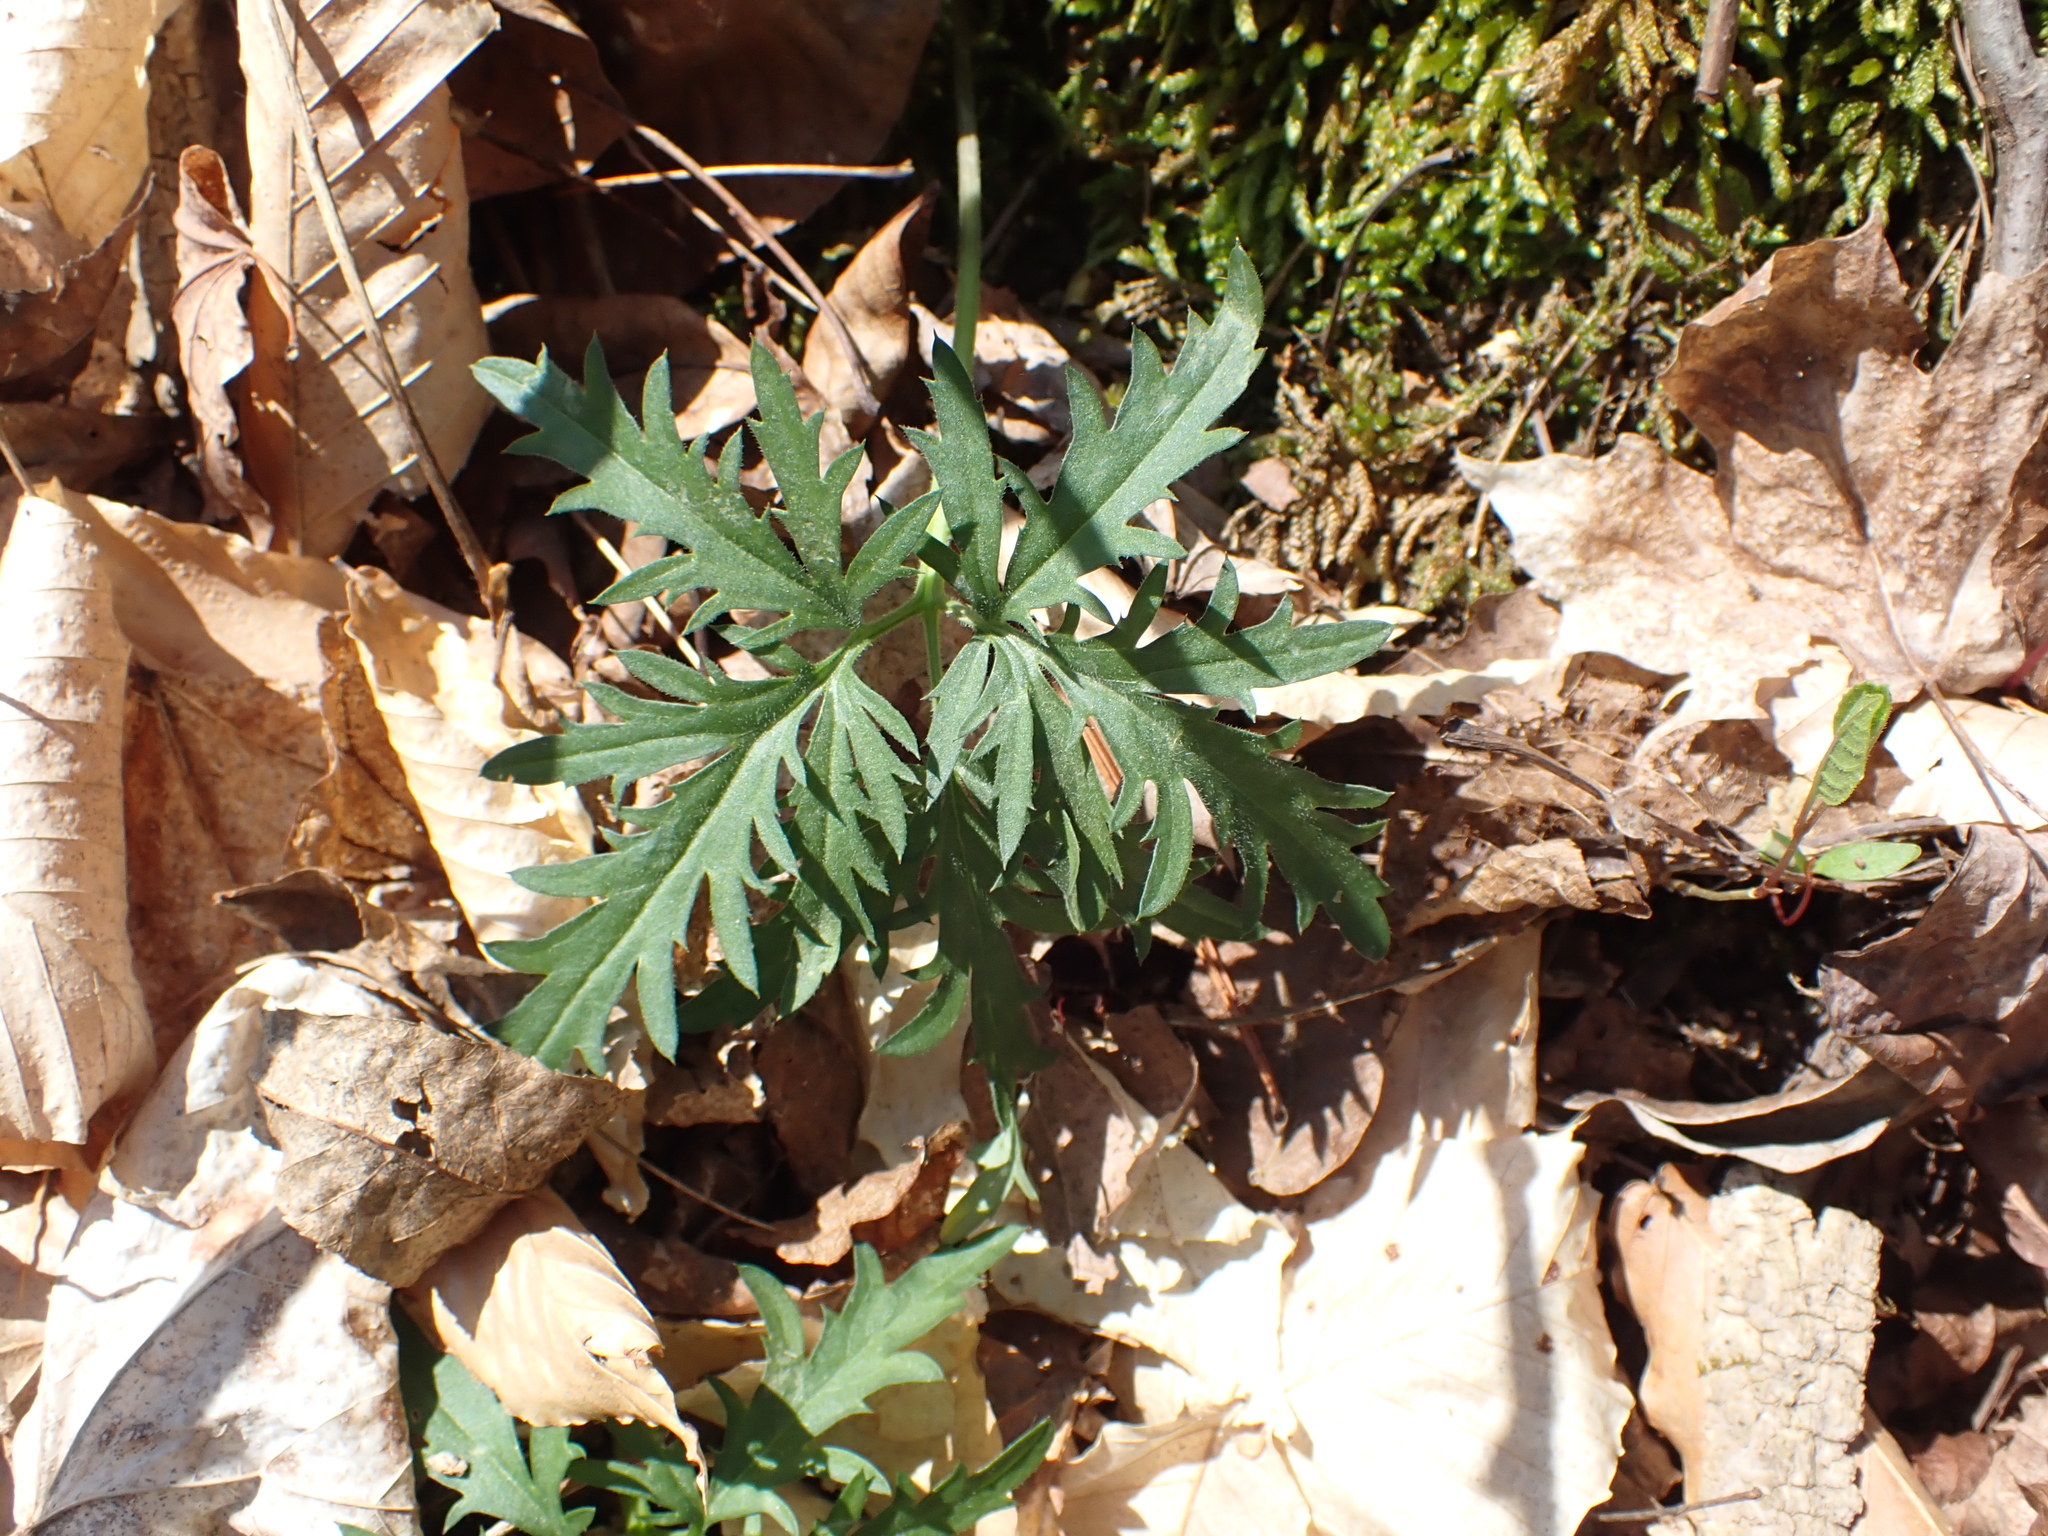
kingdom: Plantae
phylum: Tracheophyta
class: Magnoliopsida
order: Brassicales
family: Brassicaceae
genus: Cardamine
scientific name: Cardamine concatenata
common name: Cut-leaf toothcup
